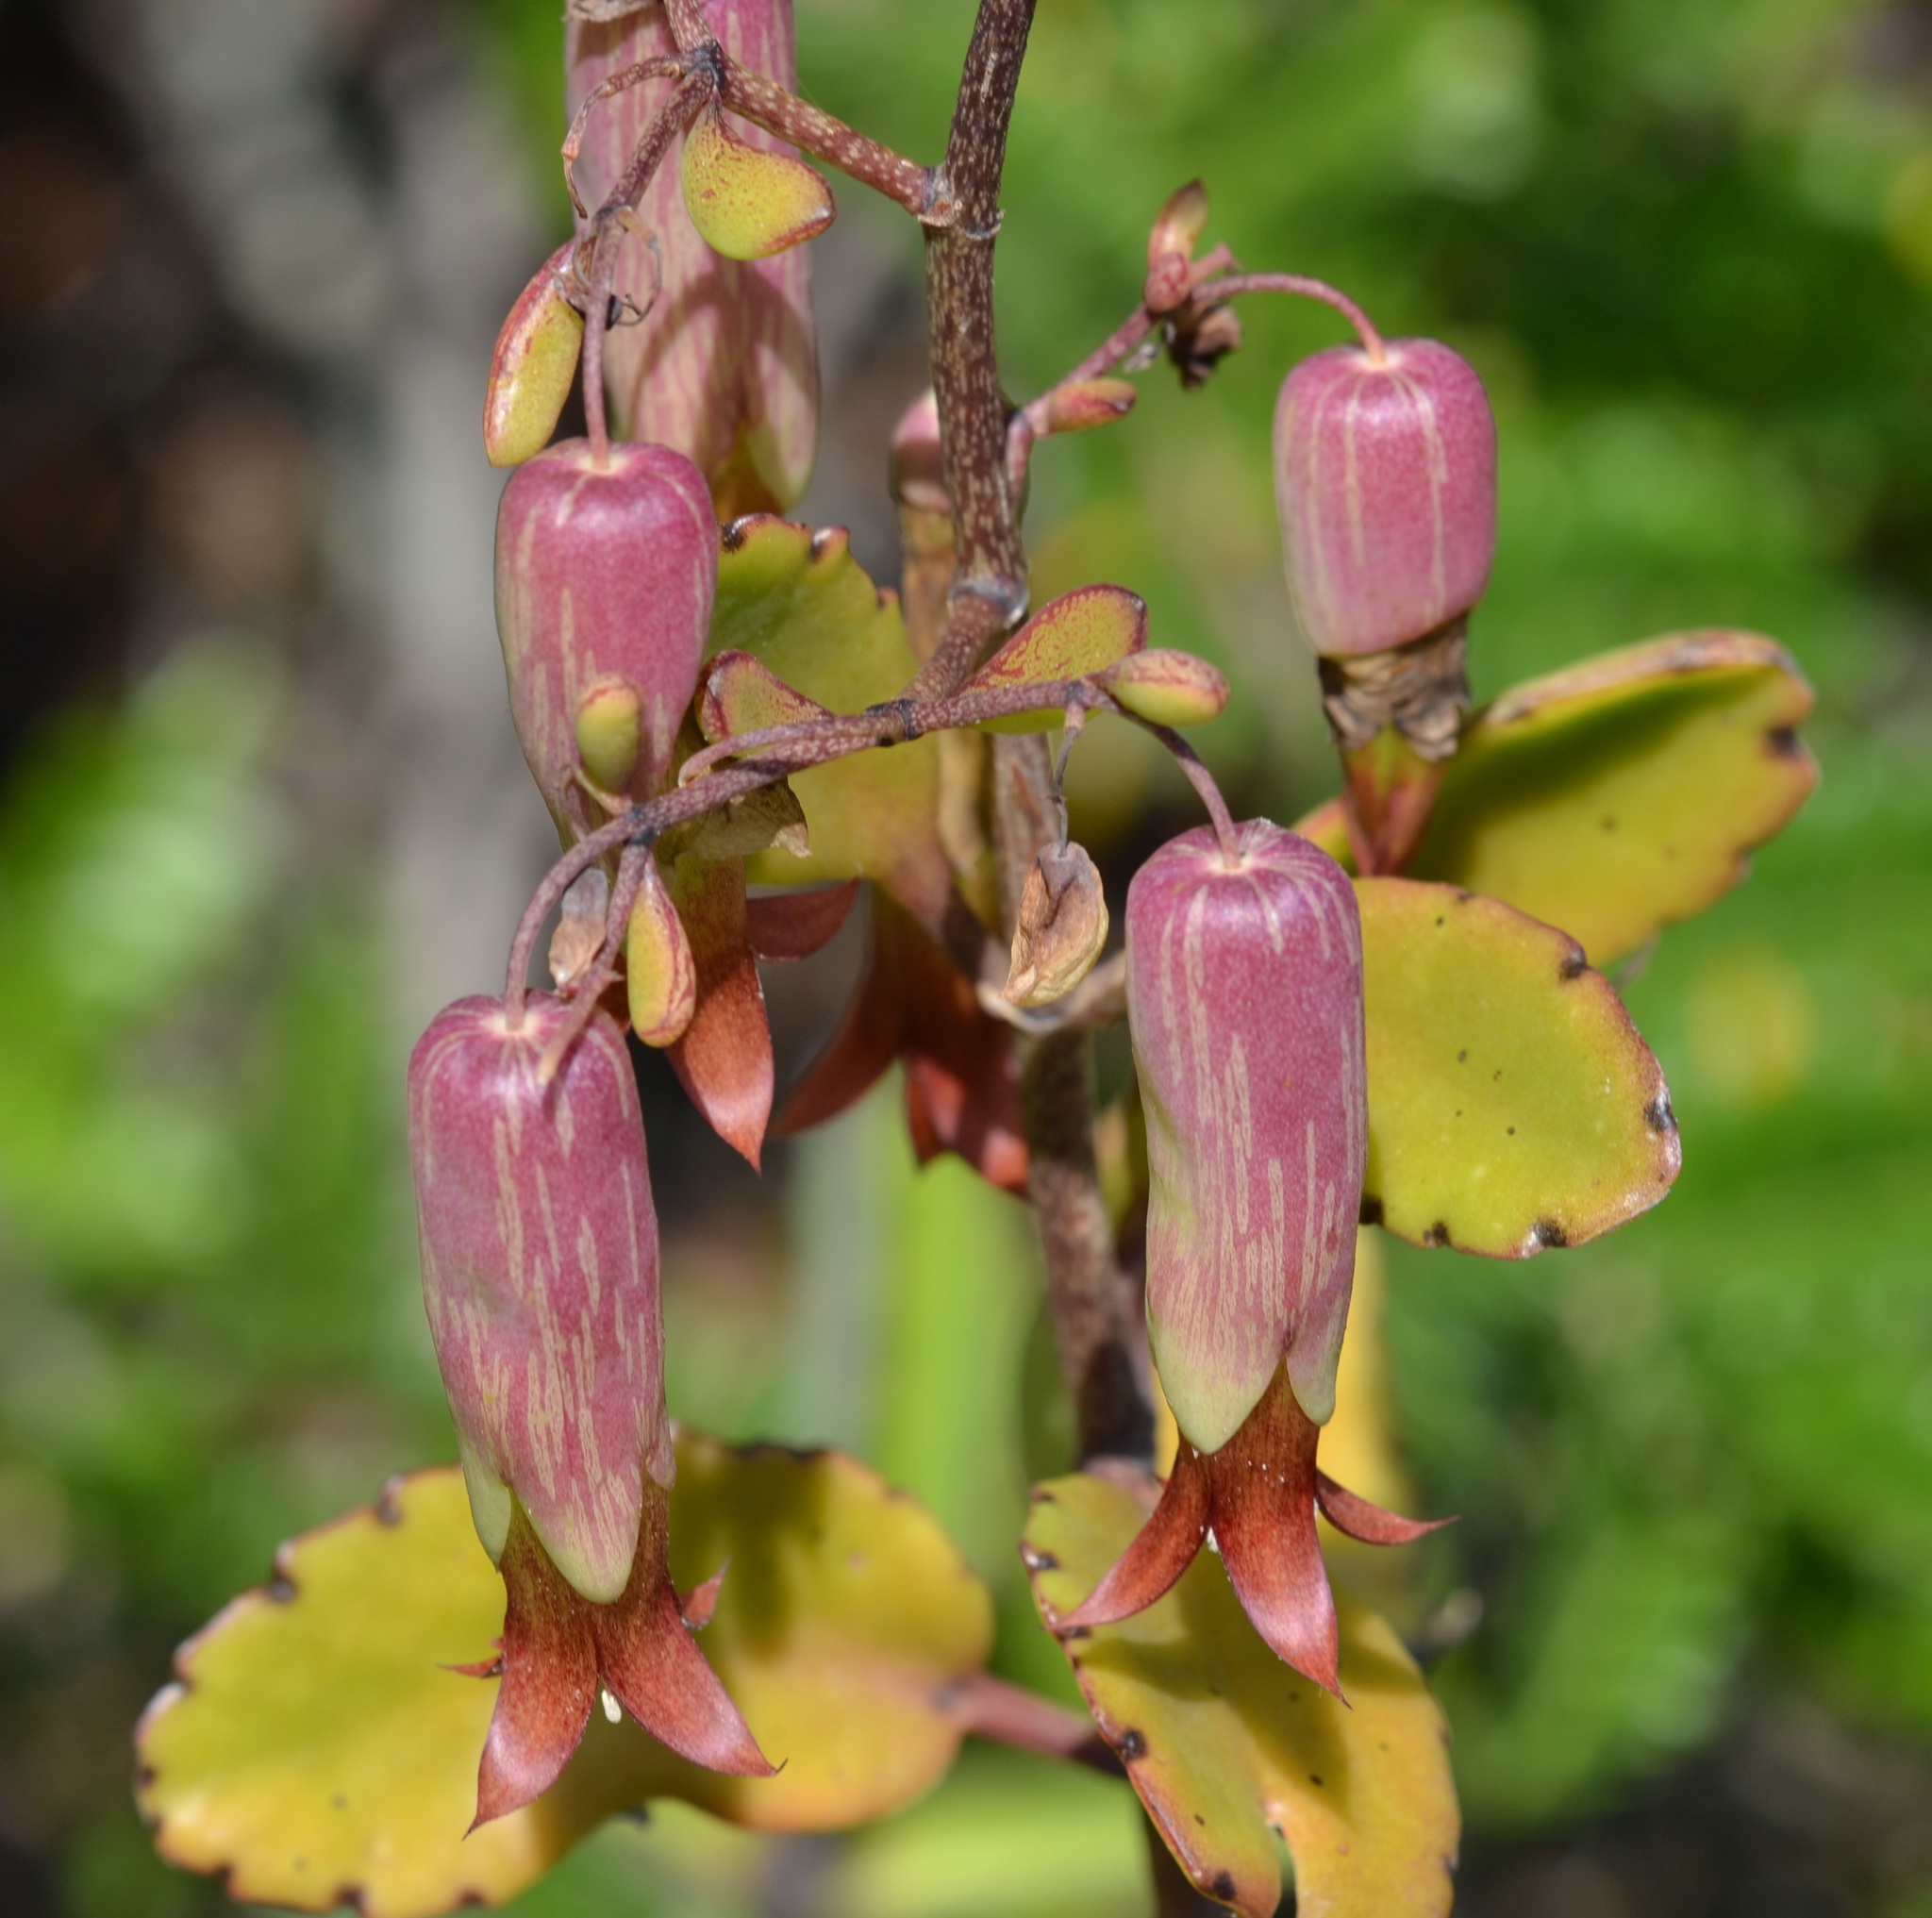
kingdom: Plantae
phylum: Tracheophyta
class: Magnoliopsida
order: Saxifragales
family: Crassulaceae
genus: Kalanchoe
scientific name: Kalanchoe pinnata
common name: Cathedral bells
